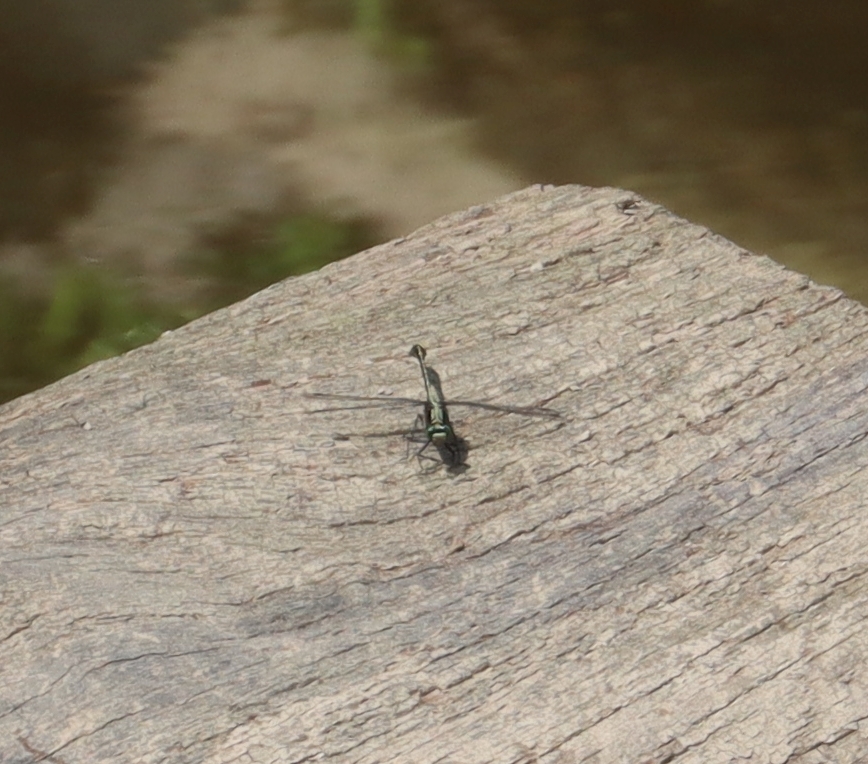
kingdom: Animalia
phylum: Arthropoda
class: Insecta
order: Odonata
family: Gomphidae
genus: Dromogomphus
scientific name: Dromogomphus spinosus
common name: Black-shouldered spinyleg
